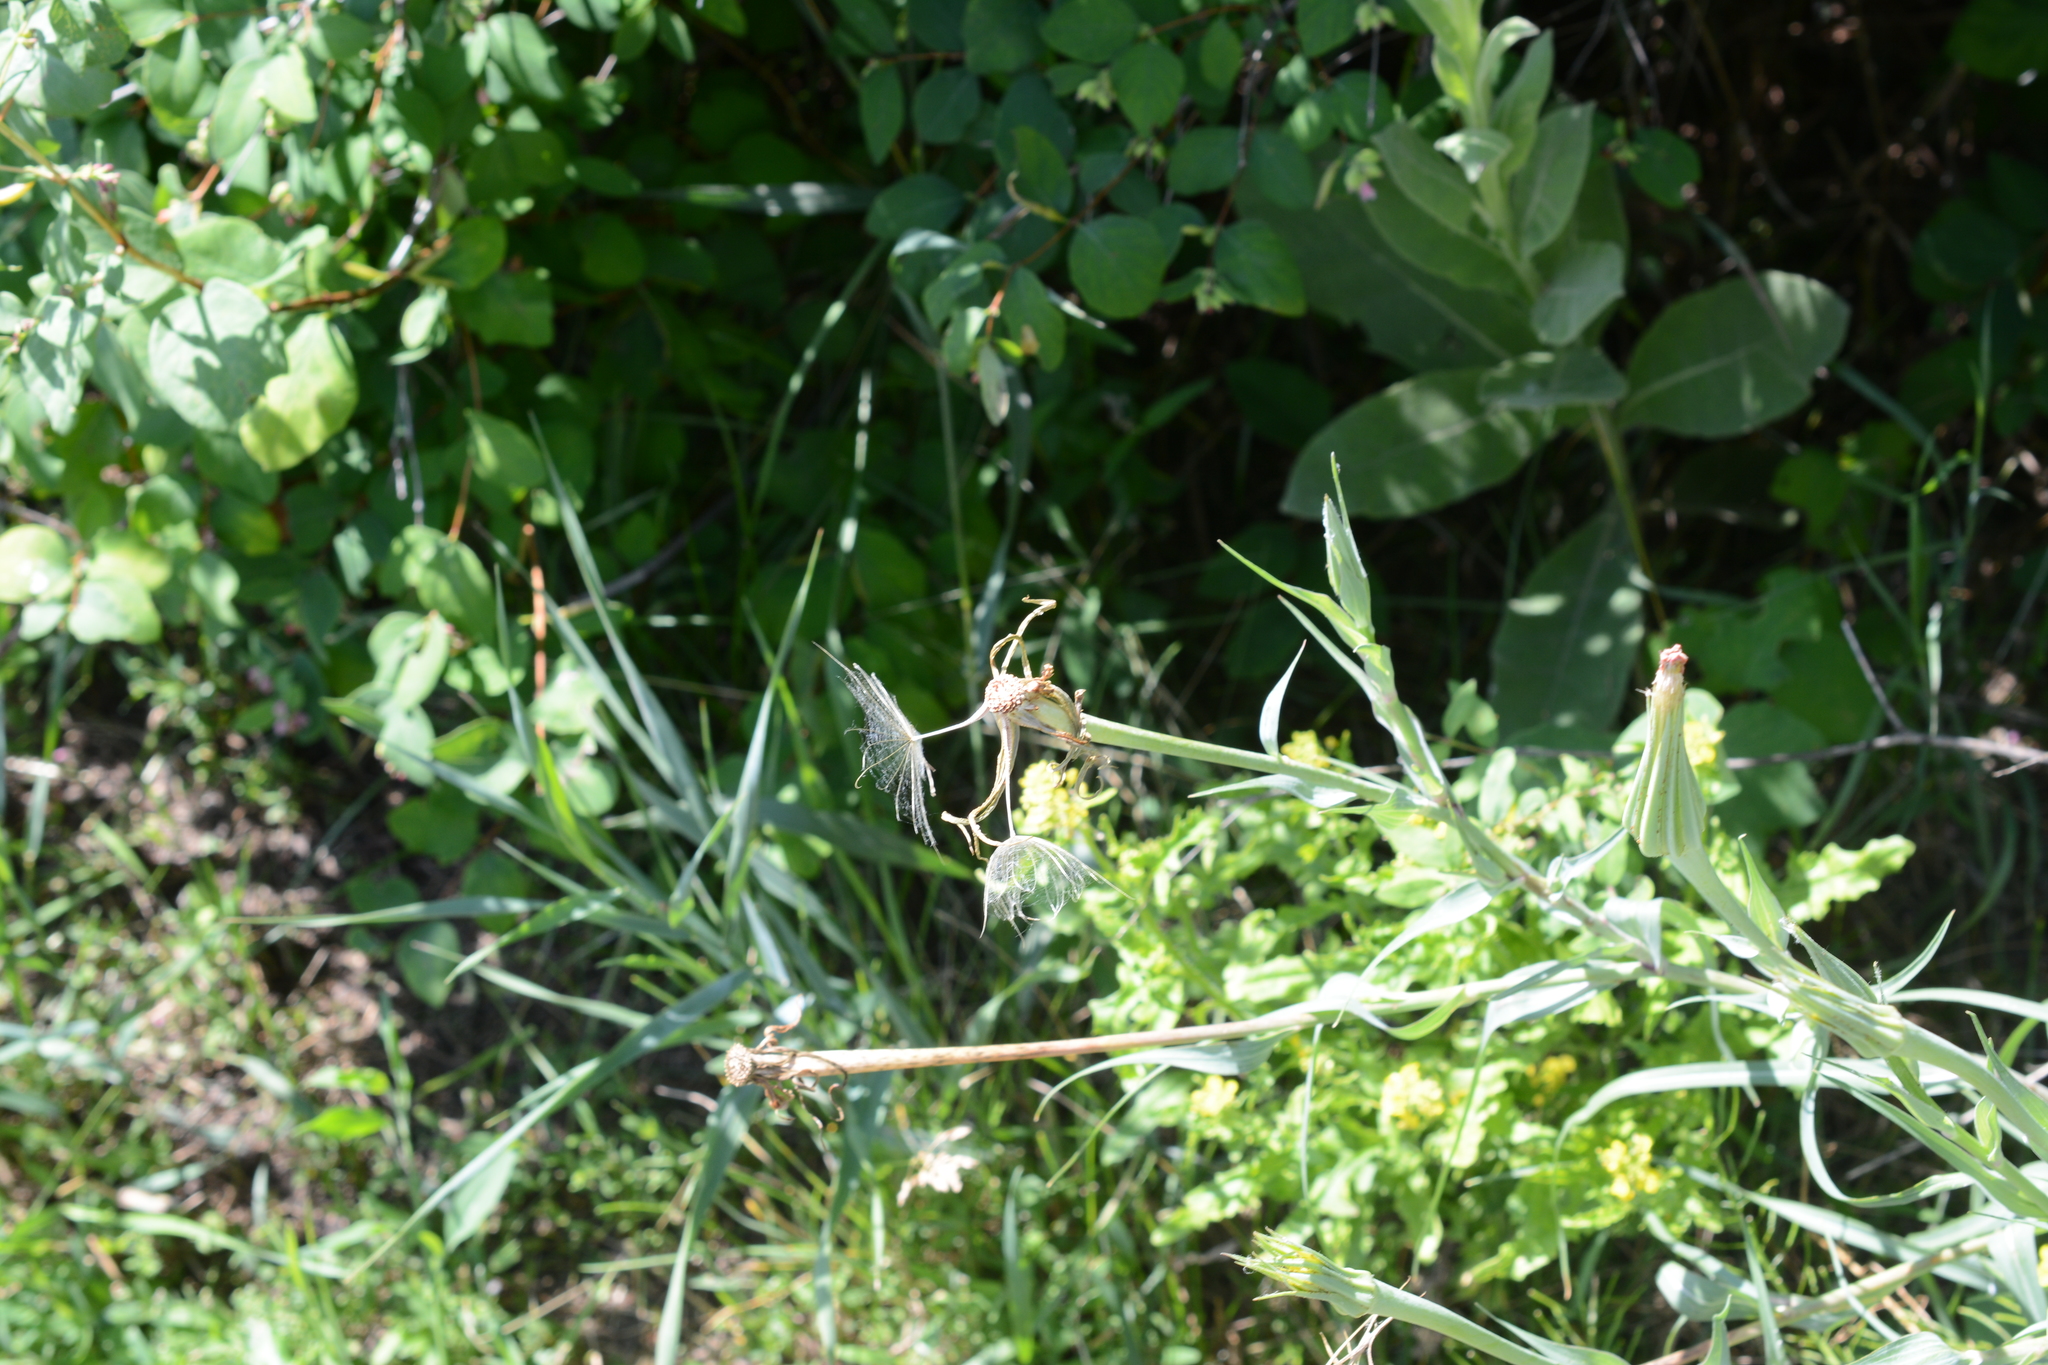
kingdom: Plantae
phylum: Tracheophyta
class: Magnoliopsida
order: Asterales
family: Asteraceae
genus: Tragopogon
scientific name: Tragopogon dubius
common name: Yellow salsify
